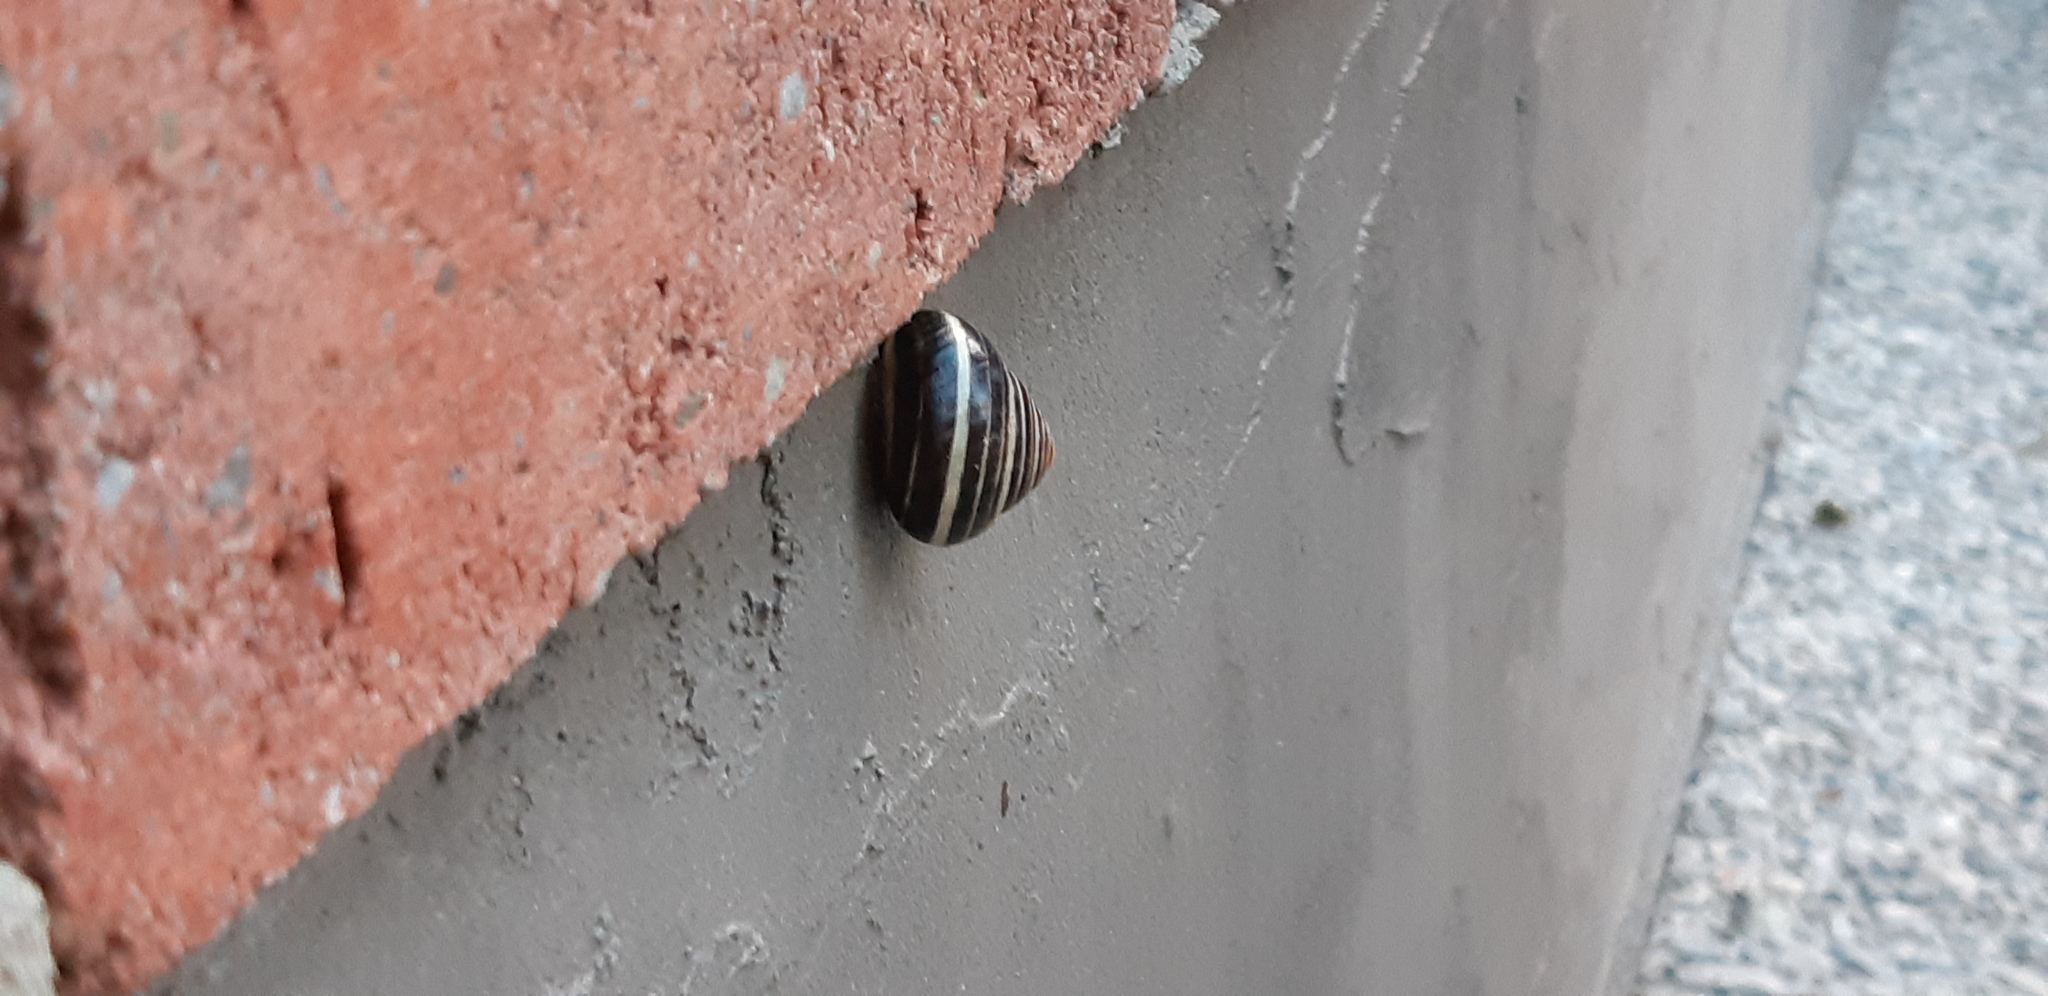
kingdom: Animalia
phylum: Mollusca
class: Gastropoda
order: Stylommatophora
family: Helicidae
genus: Cepaea
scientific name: Cepaea nemoralis
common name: Grovesnail
